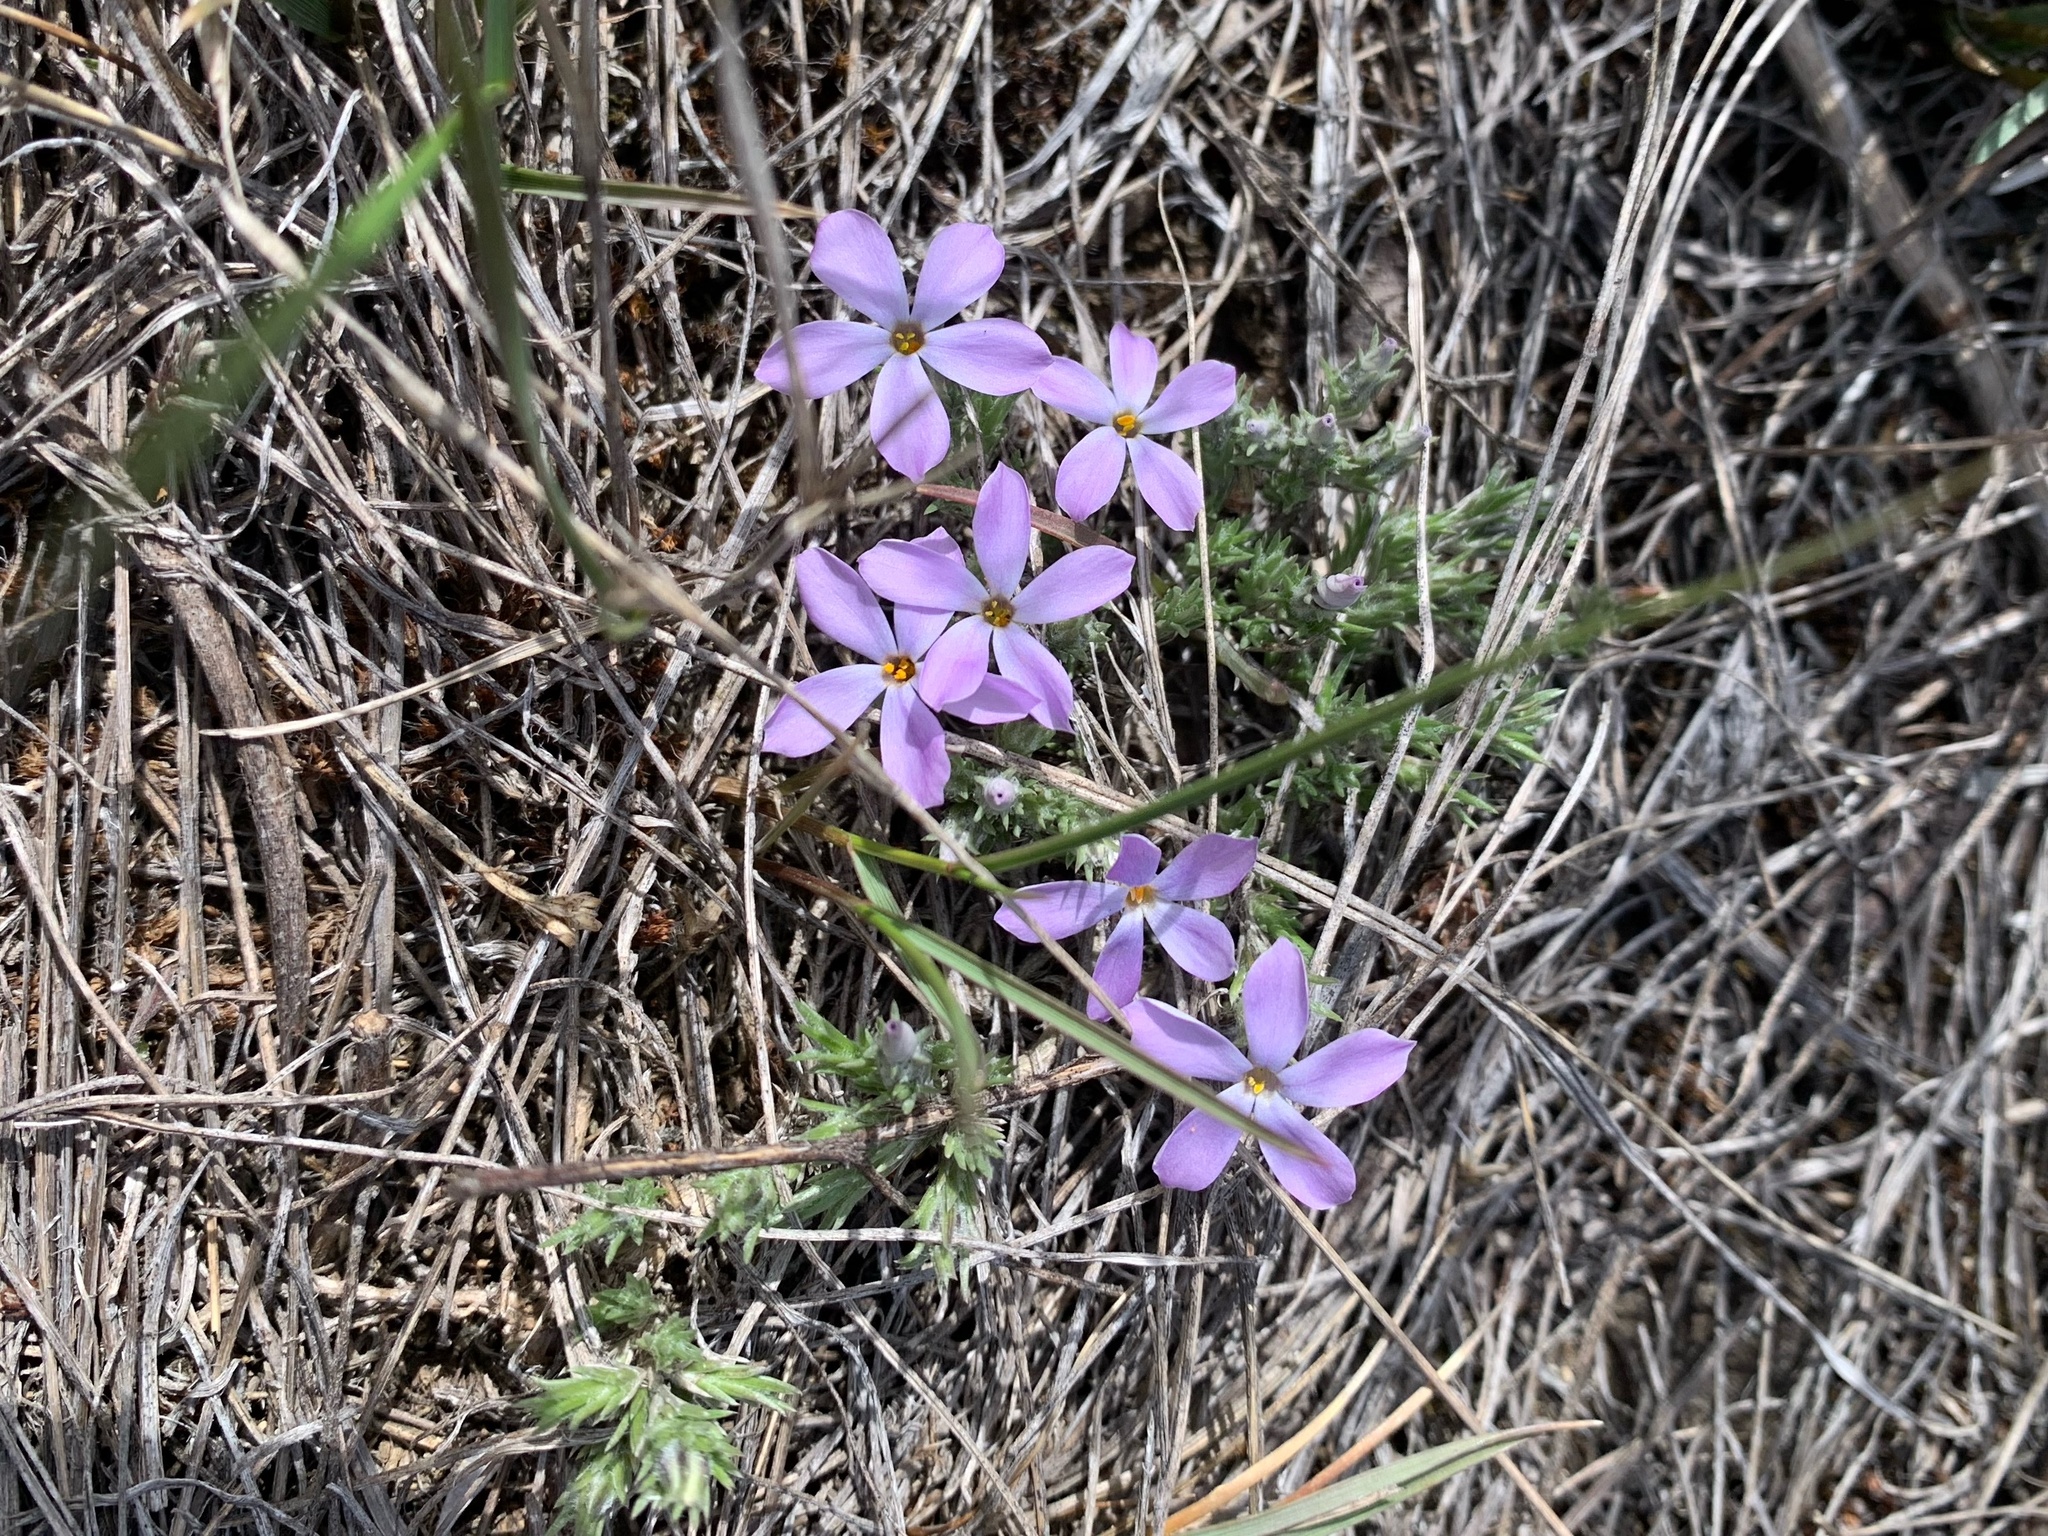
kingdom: Plantae
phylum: Tracheophyta
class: Magnoliopsida
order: Ericales
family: Polemoniaceae
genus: Phlox
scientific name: Phlox hoodii
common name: Moss phlox
